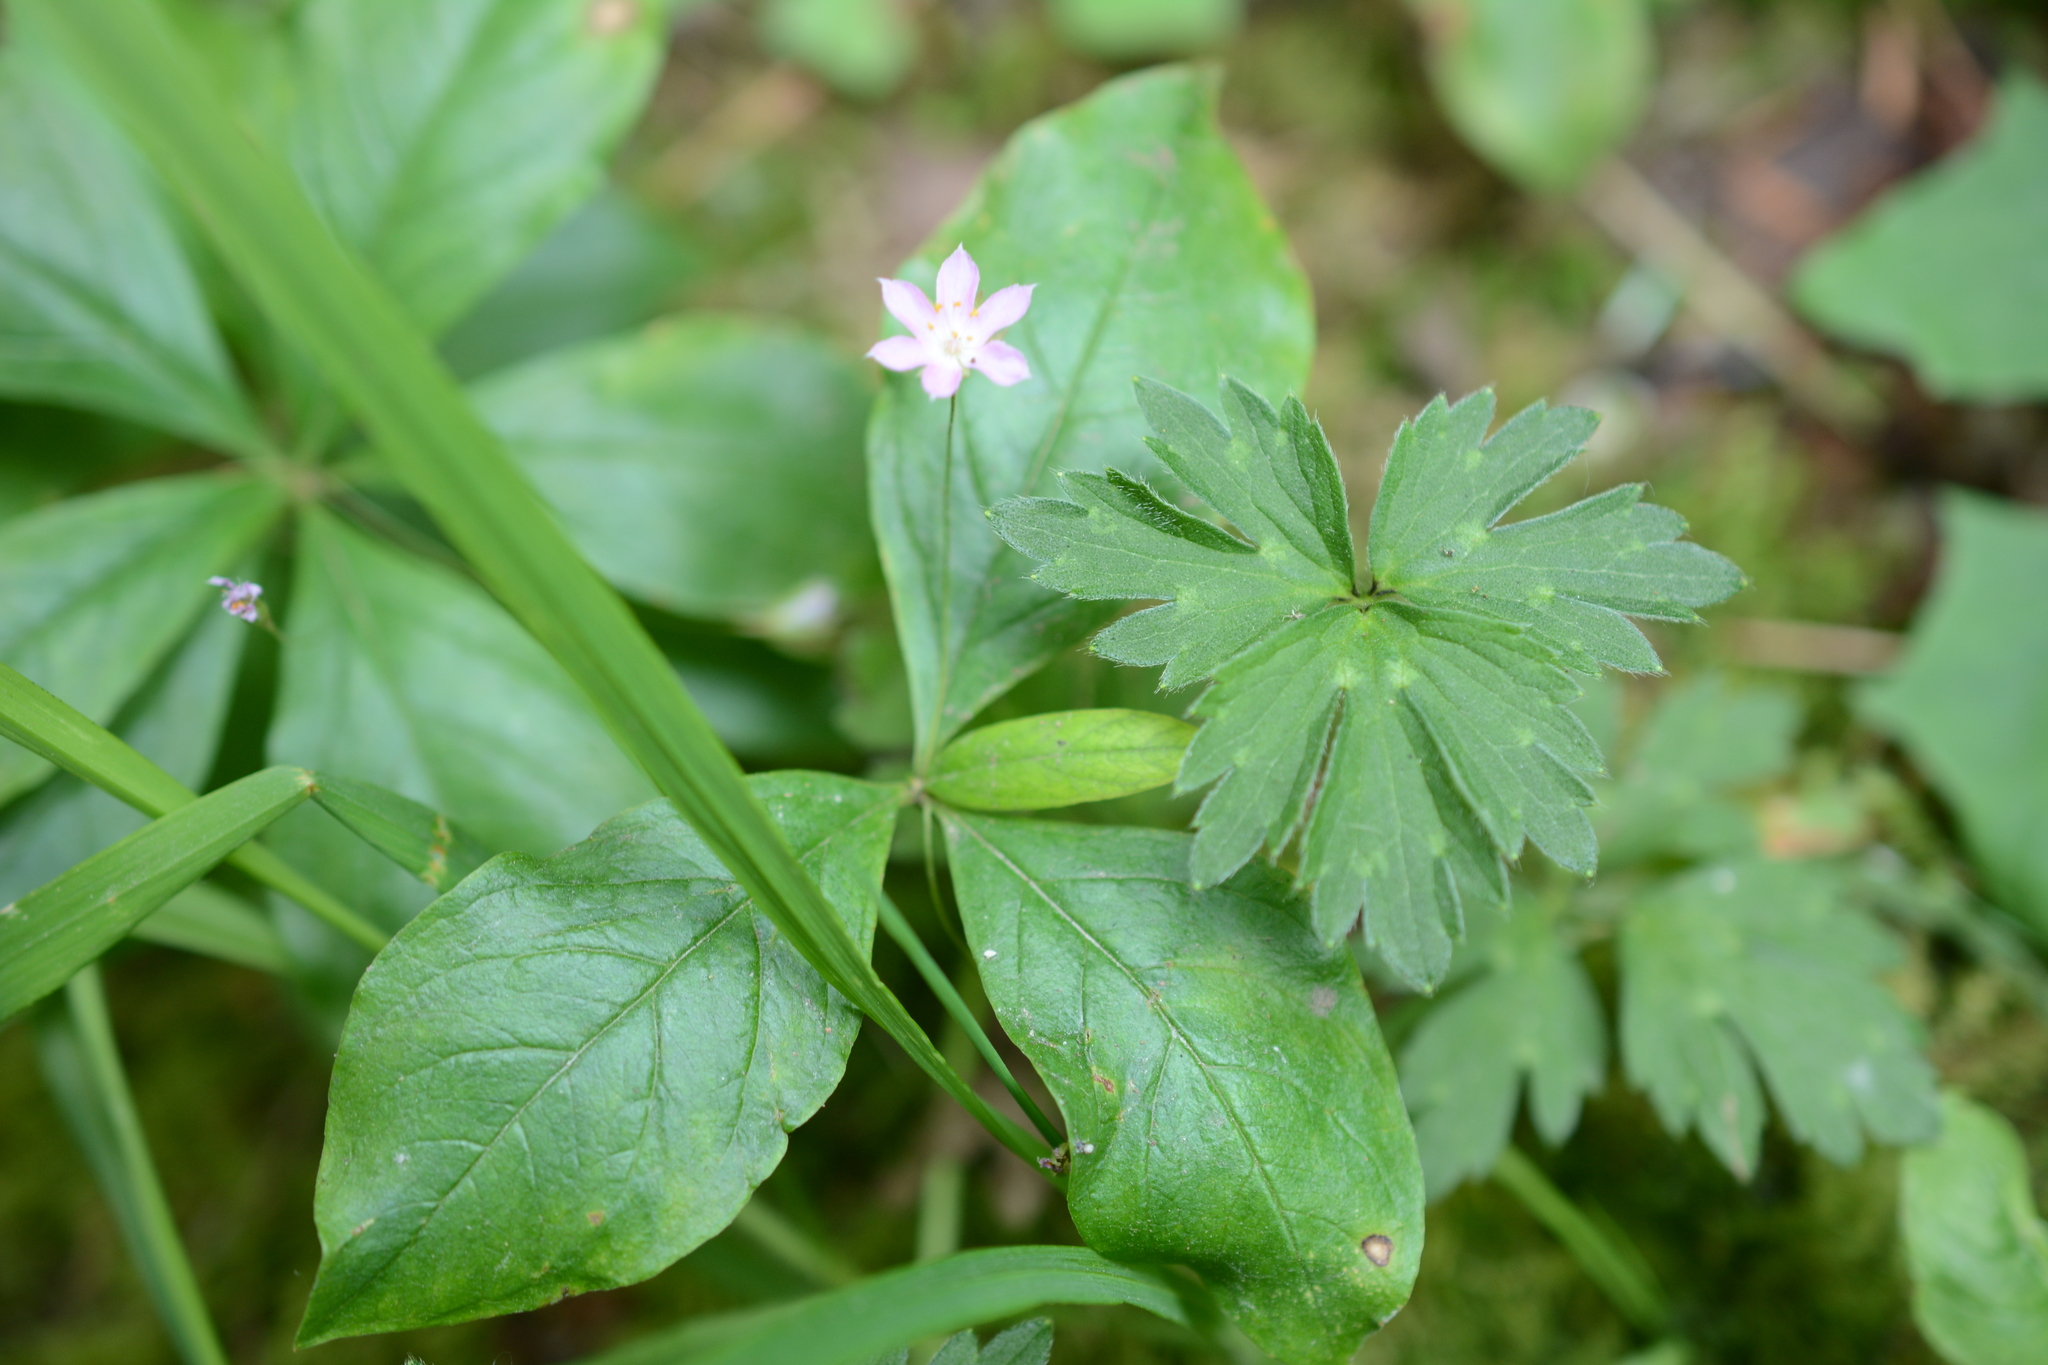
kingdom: Plantae
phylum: Tracheophyta
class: Magnoliopsida
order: Ericales
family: Primulaceae
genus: Lysimachia
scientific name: Lysimachia latifolia
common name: Pacific starflower
